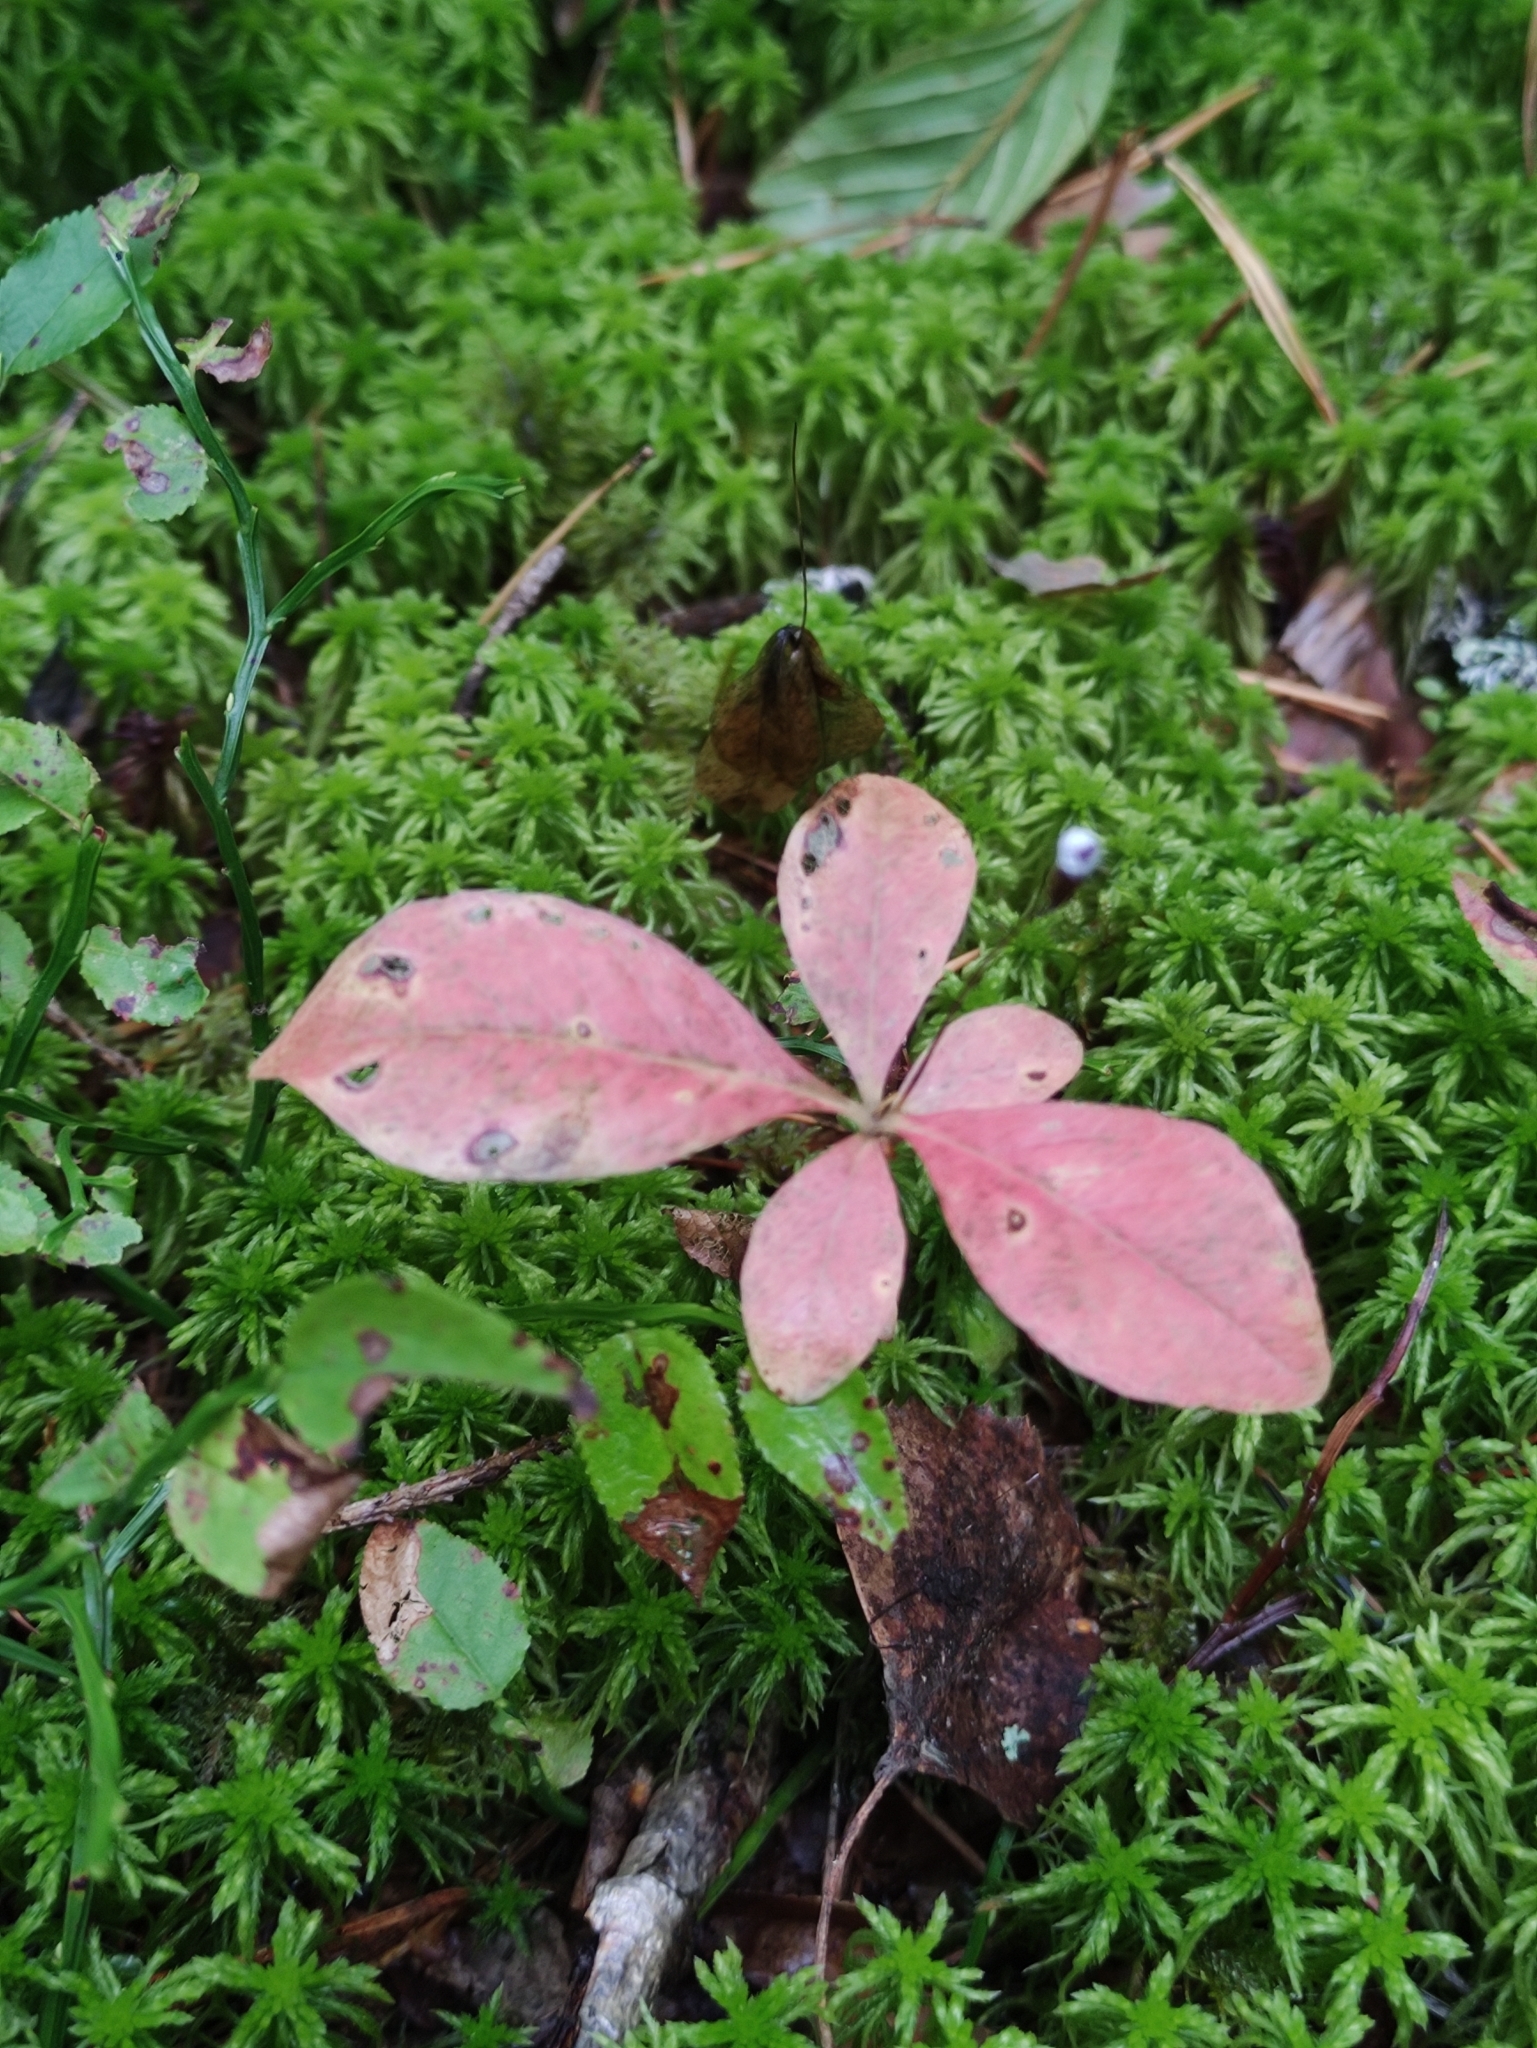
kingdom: Plantae
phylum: Tracheophyta
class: Magnoliopsida
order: Ericales
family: Primulaceae
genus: Lysimachia
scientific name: Lysimachia europaea
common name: Arctic starflower
